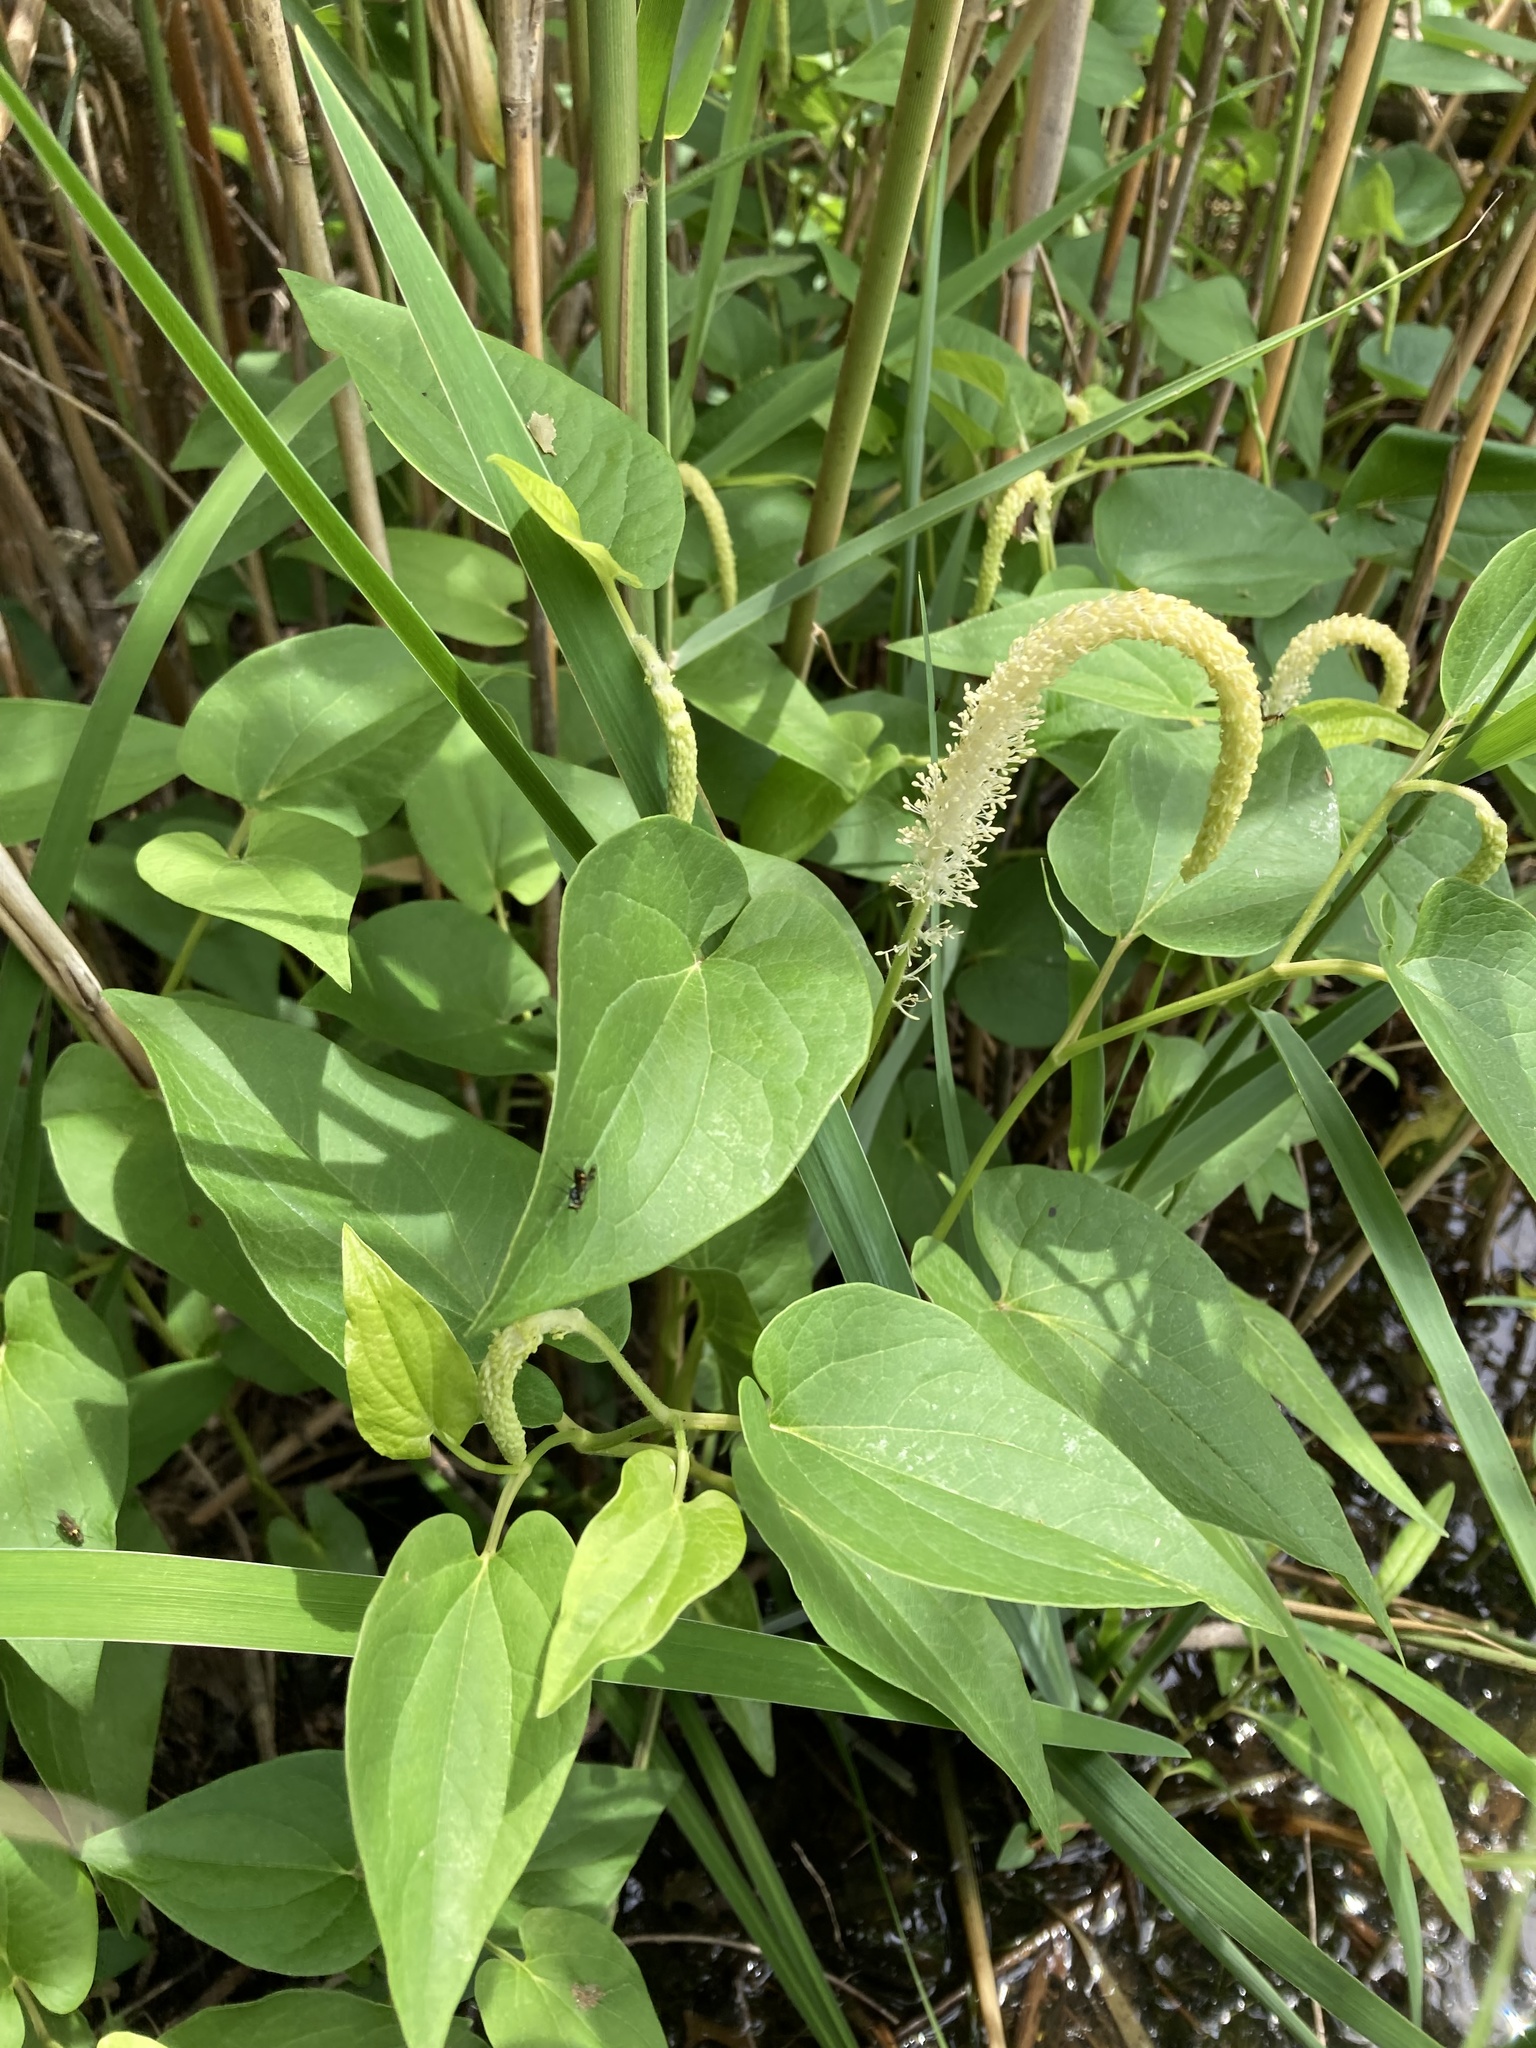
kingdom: Plantae
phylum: Tracheophyta
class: Magnoliopsida
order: Piperales
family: Saururaceae
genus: Saururus
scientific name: Saururus cernuus
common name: Lizard's-tail
